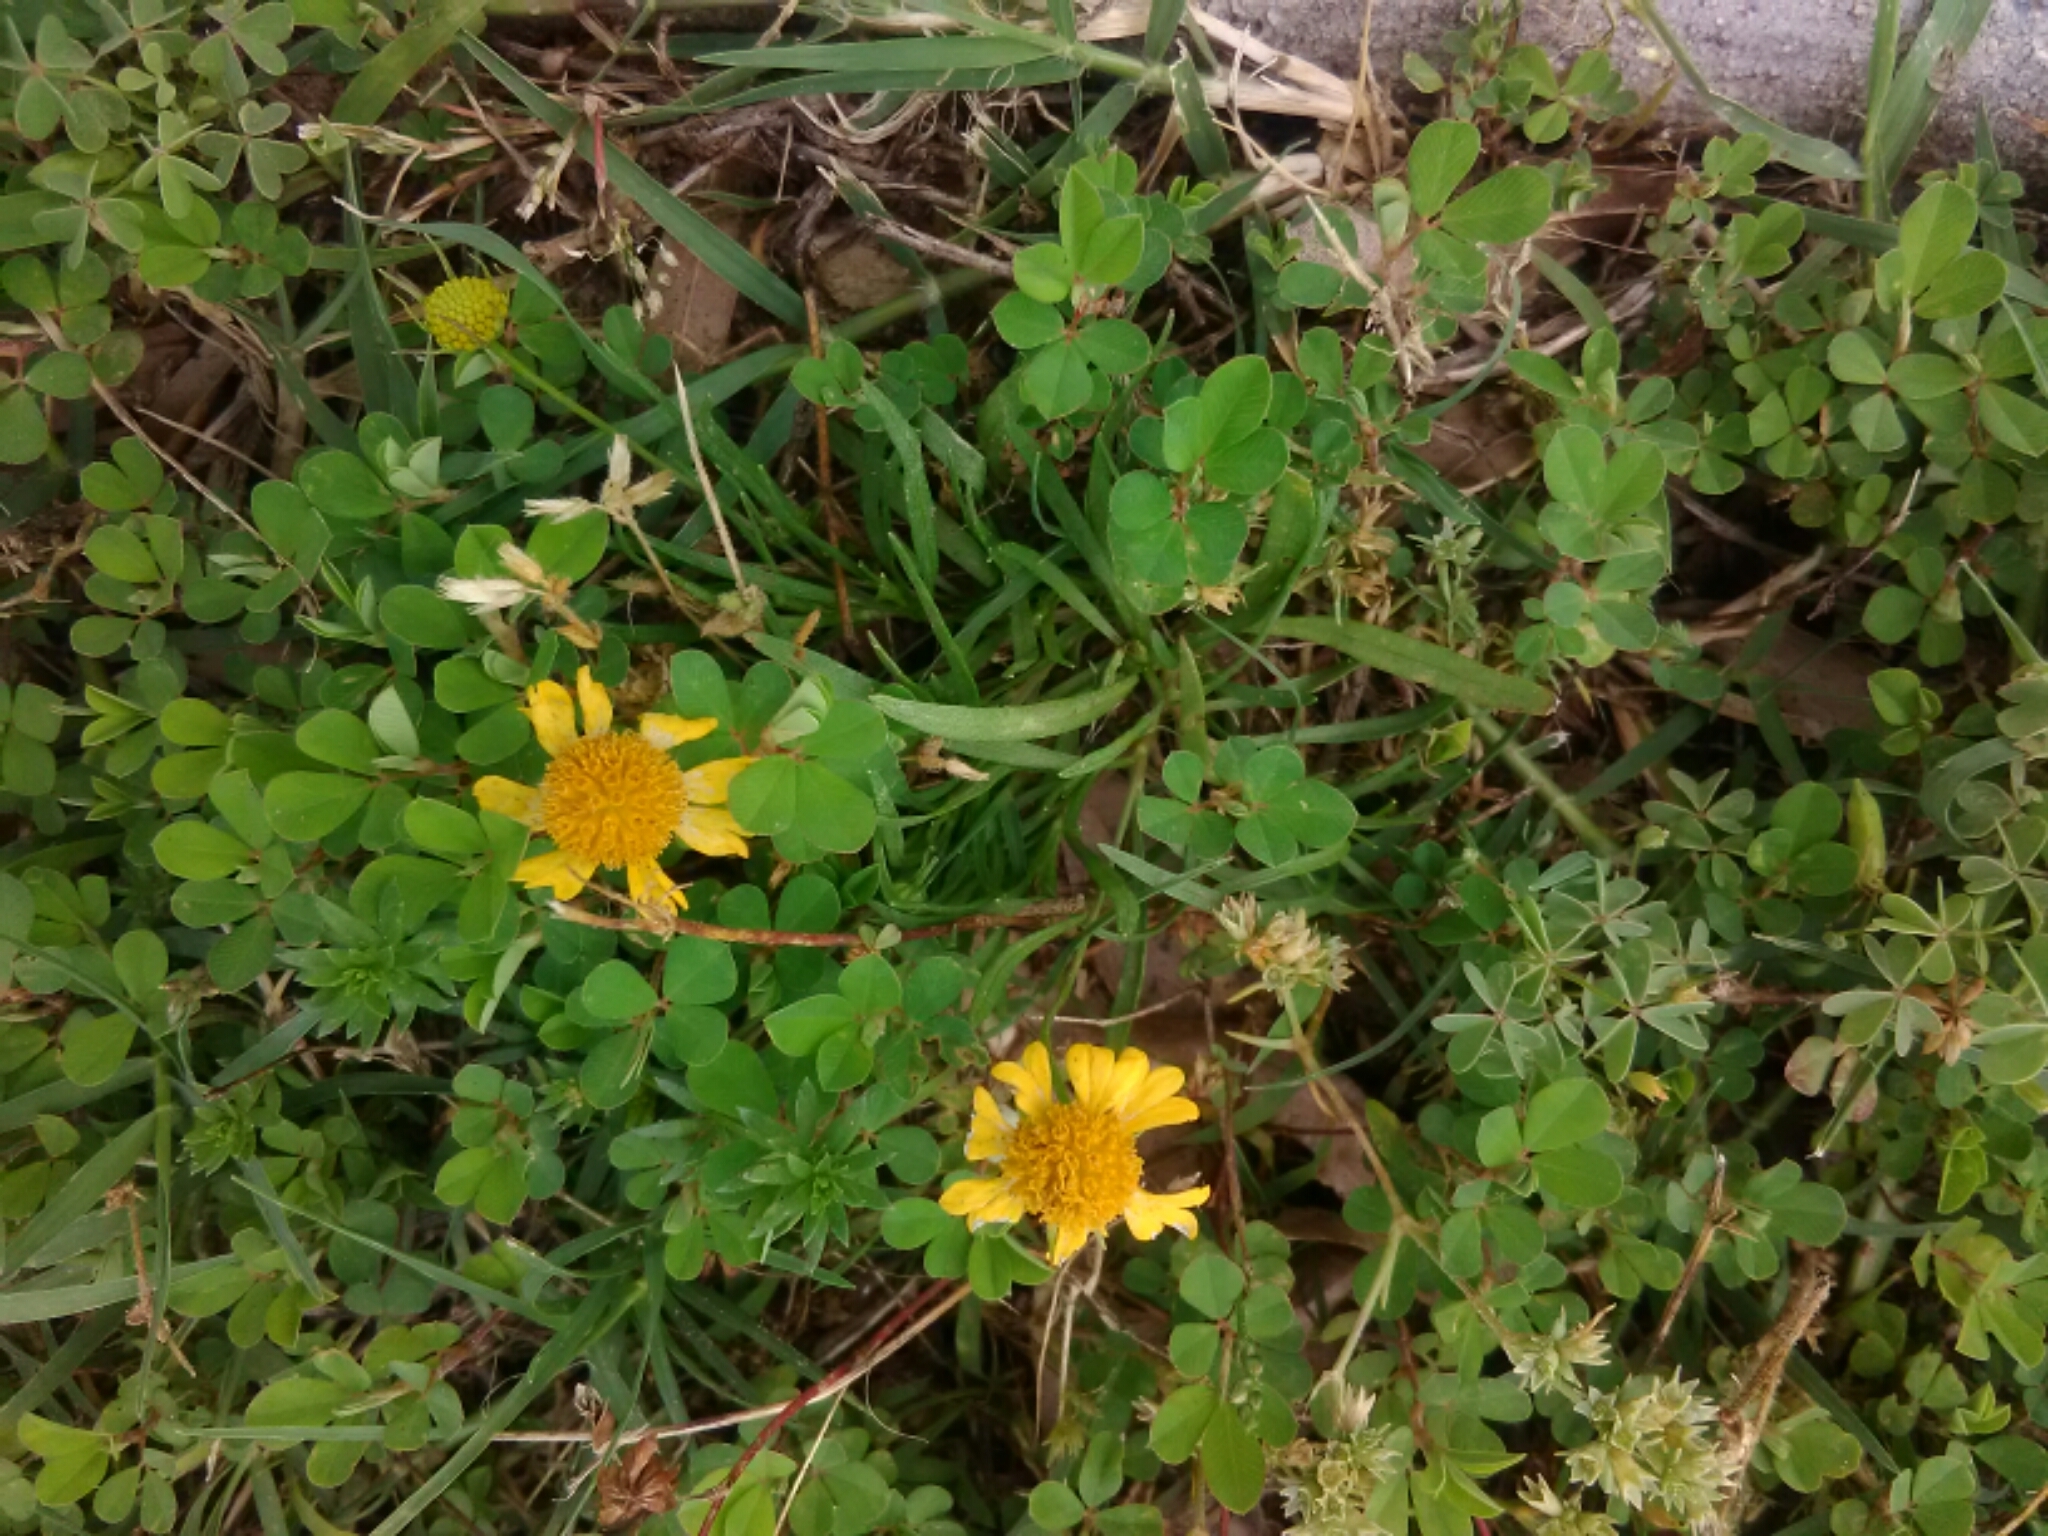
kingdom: Plantae
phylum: Tracheophyta
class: Magnoliopsida
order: Asterales
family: Asteraceae
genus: Helenium
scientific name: Helenium amarum
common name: Bitter sneezeweed
